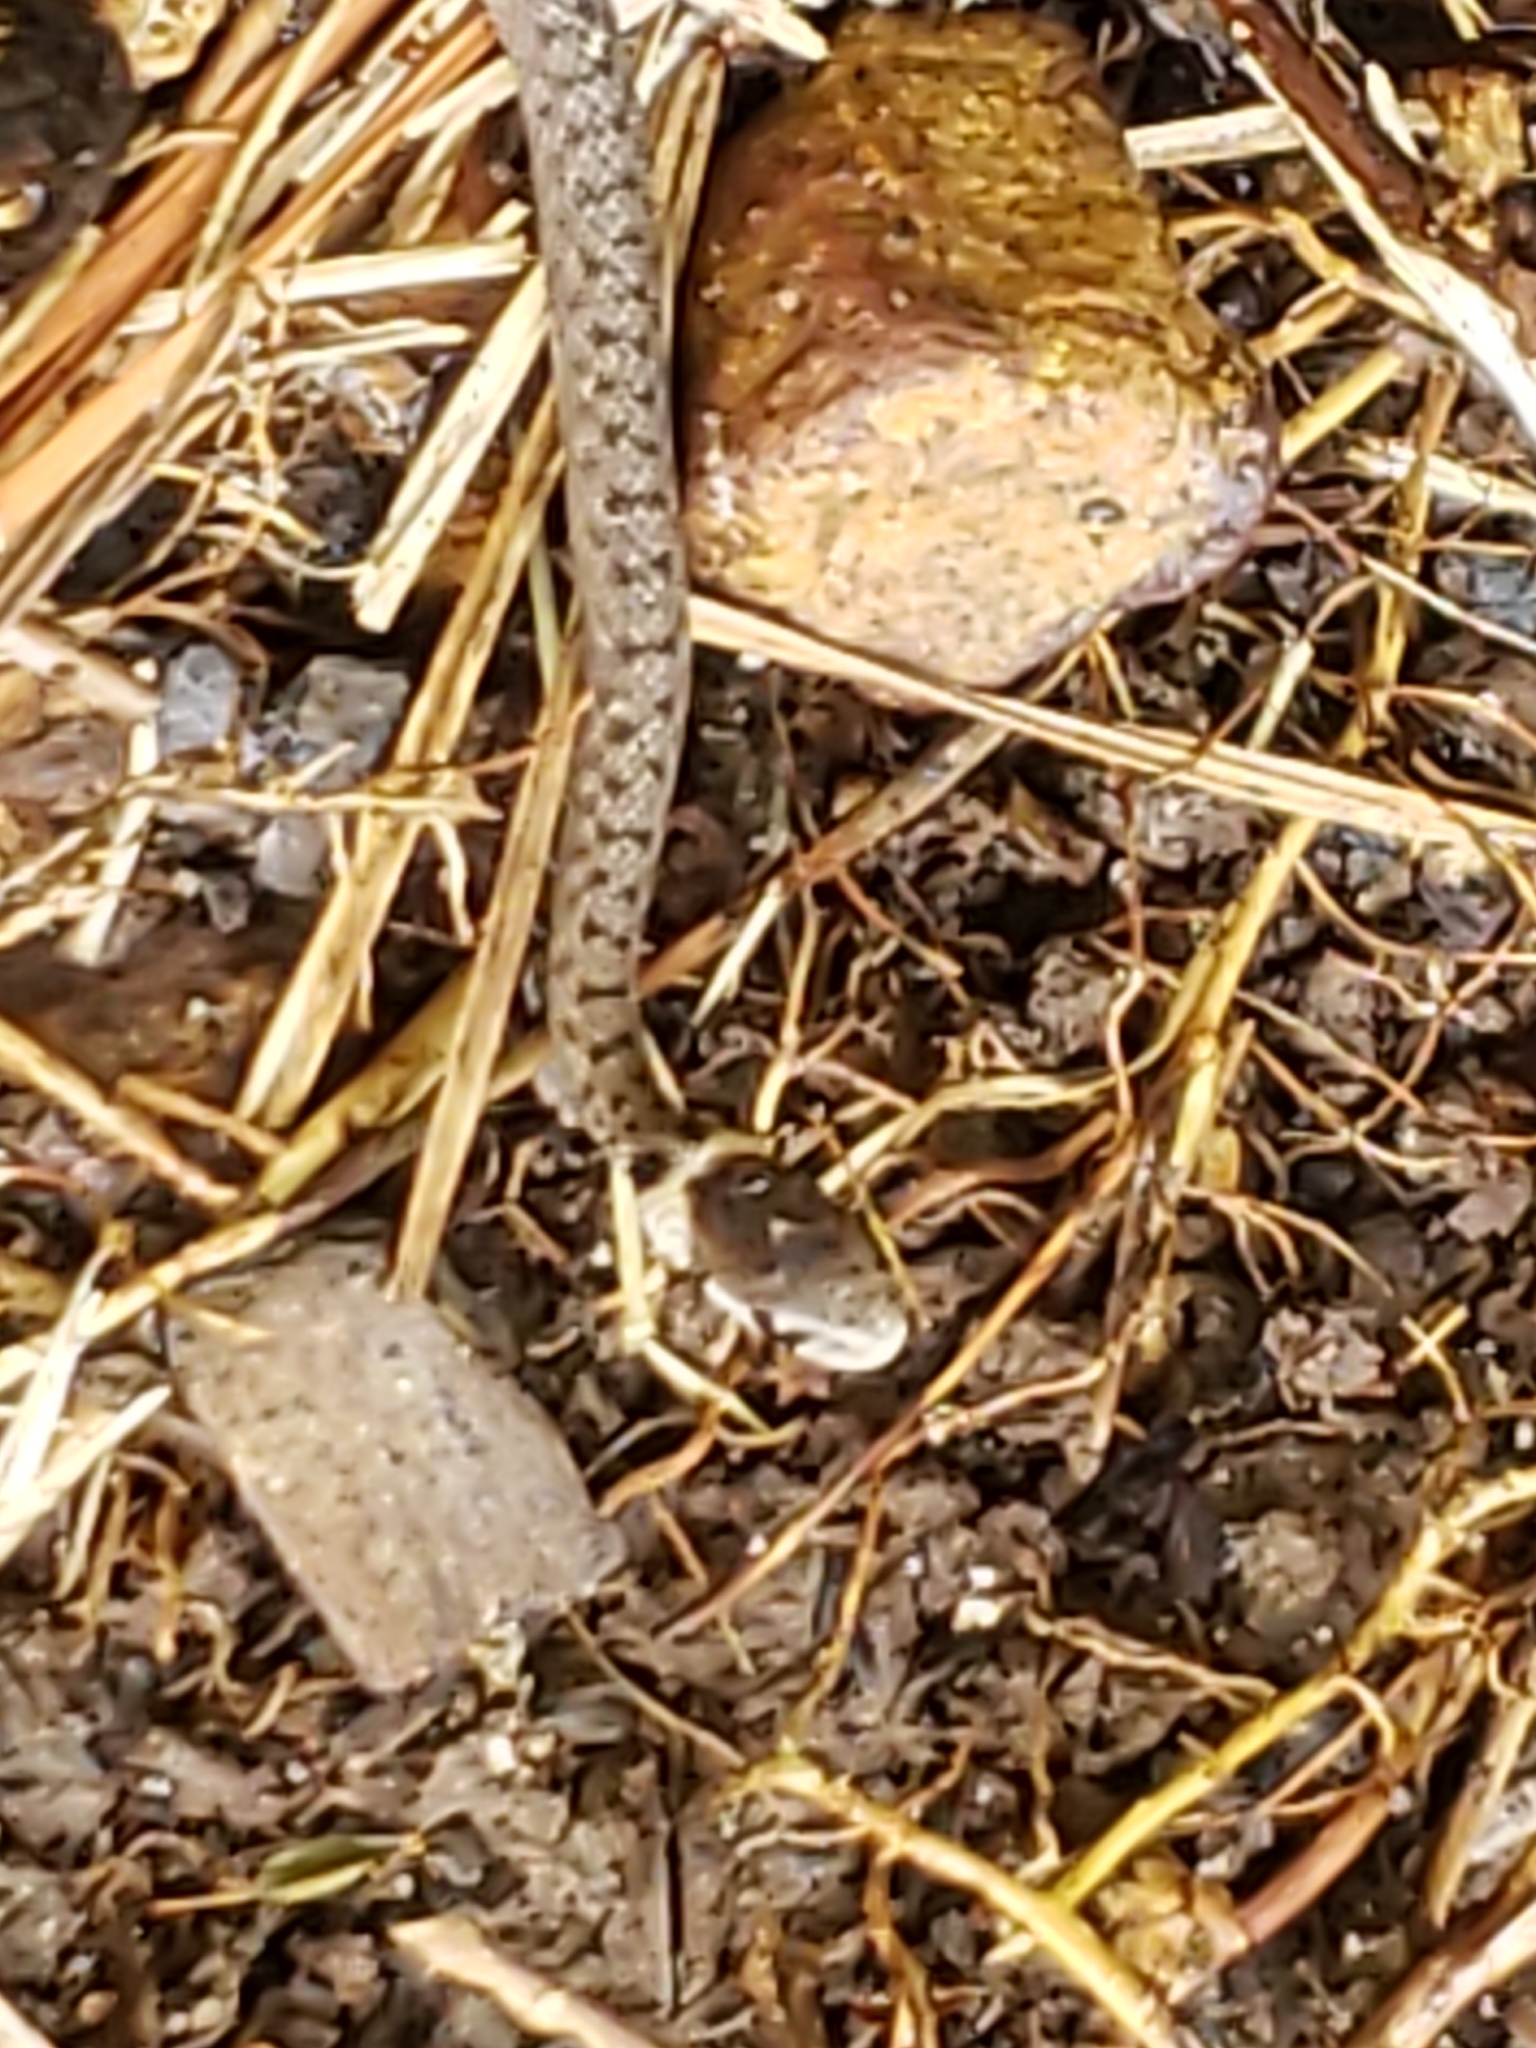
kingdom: Animalia
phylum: Chordata
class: Squamata
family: Colubridae
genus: Storeria
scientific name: Storeria dekayi
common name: (dekay’s) brown snake
